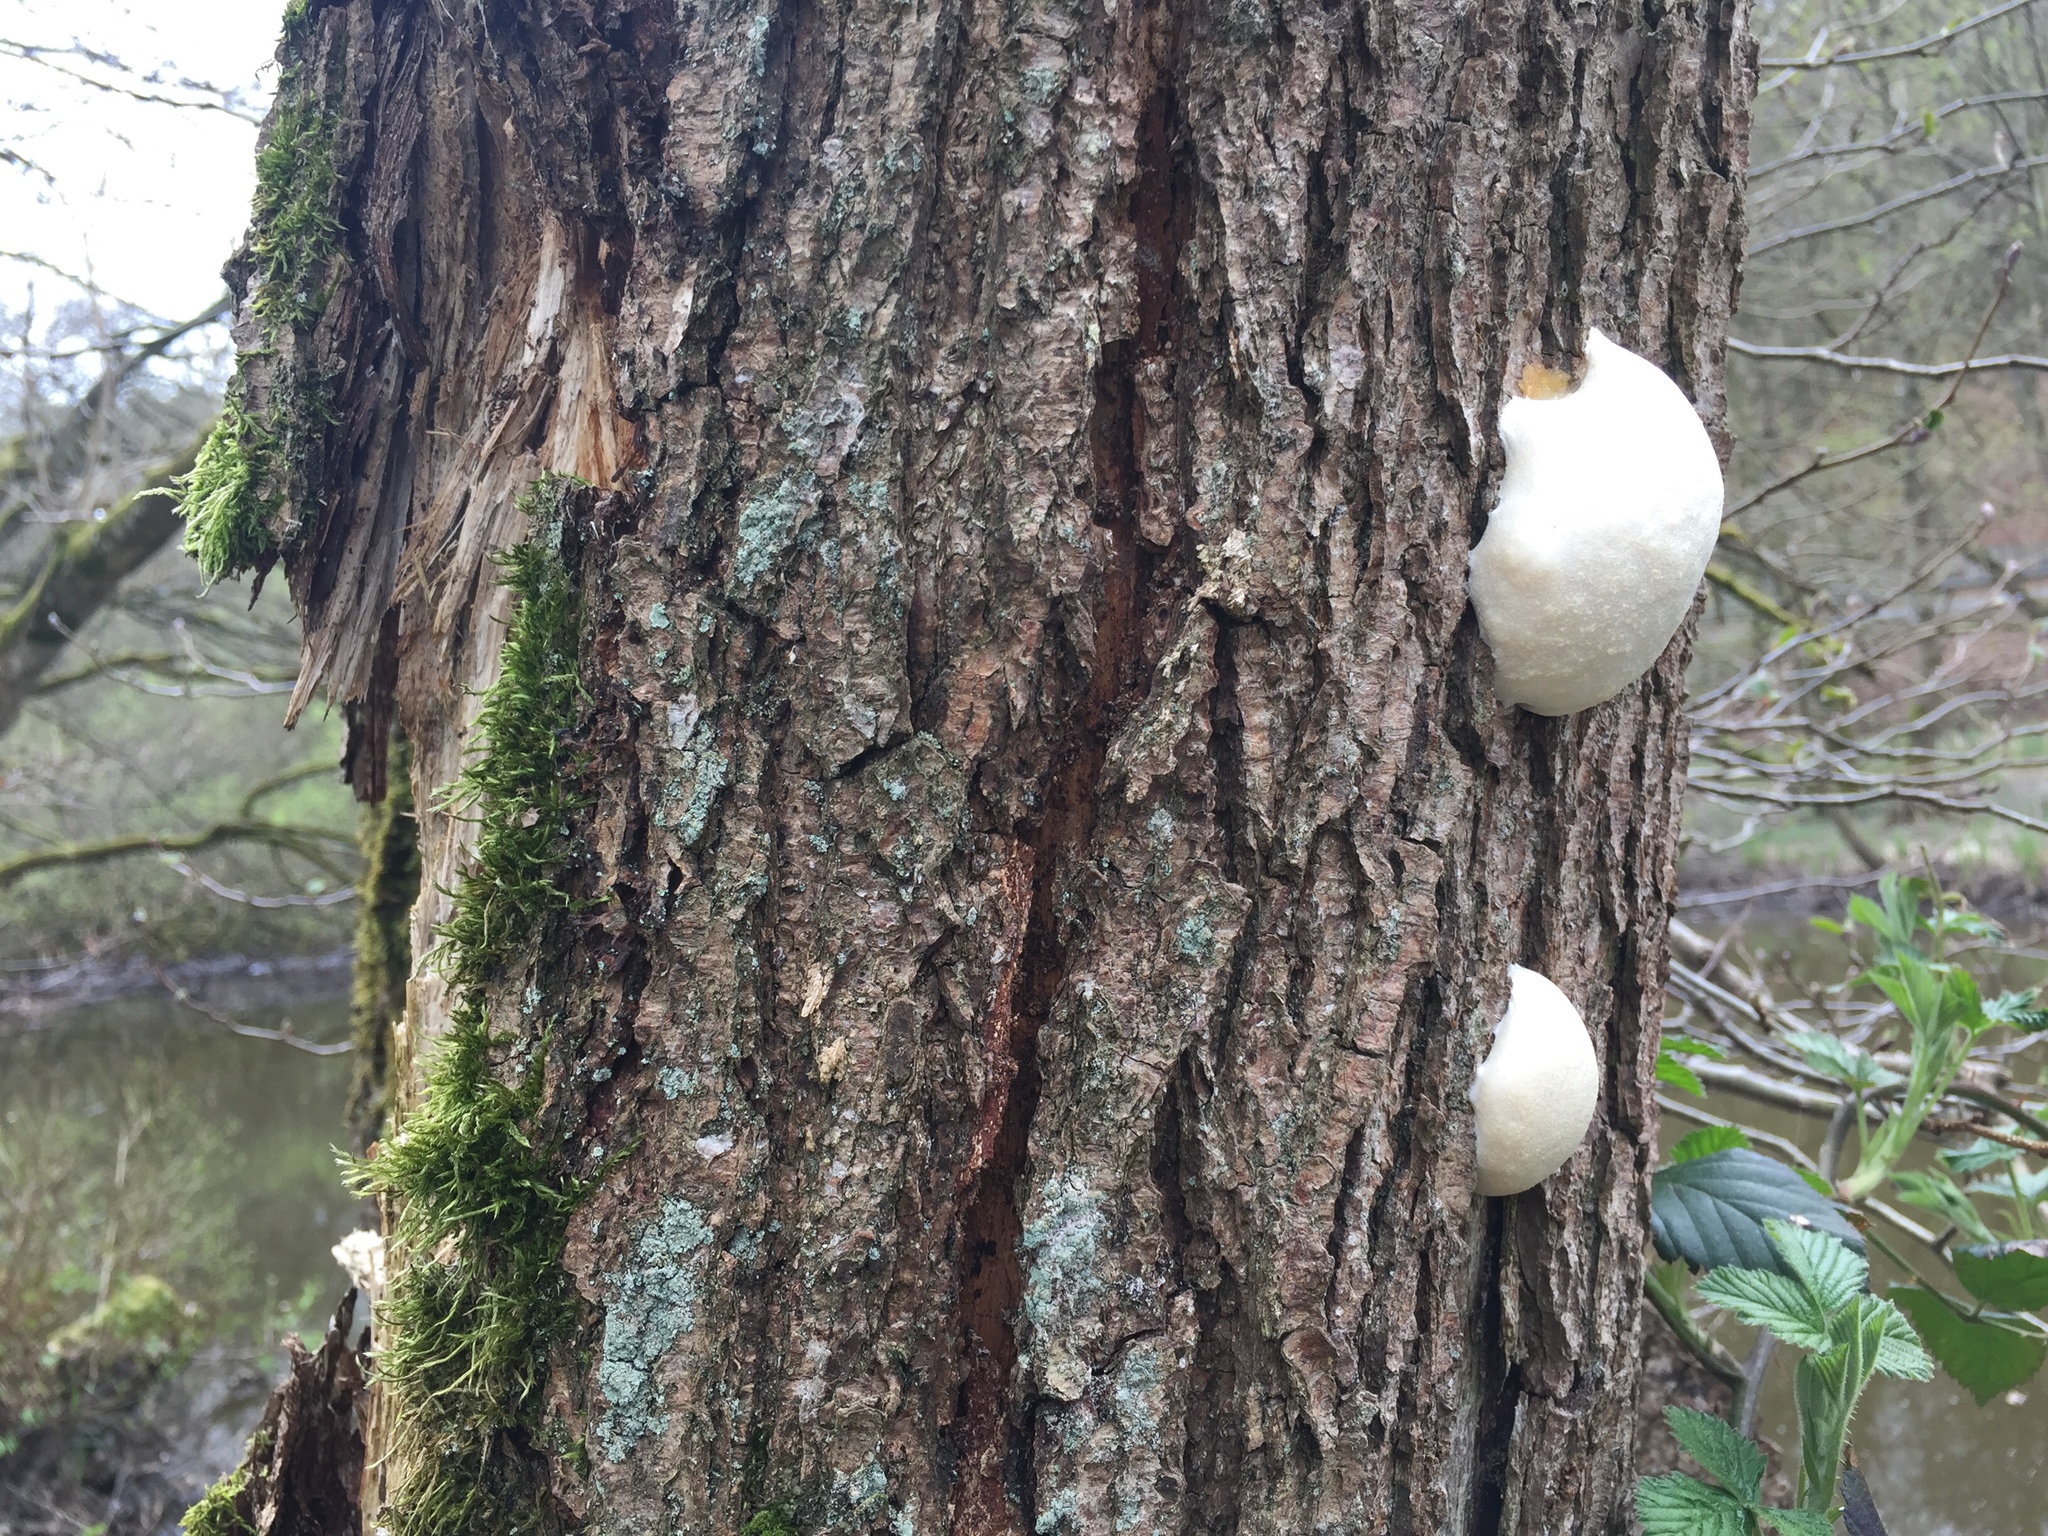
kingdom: Protozoa
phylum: Mycetozoa
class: Myxomycetes
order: Cribrariales
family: Tubiferaceae
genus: Reticularia
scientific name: Reticularia lycoperdon
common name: False puffball
